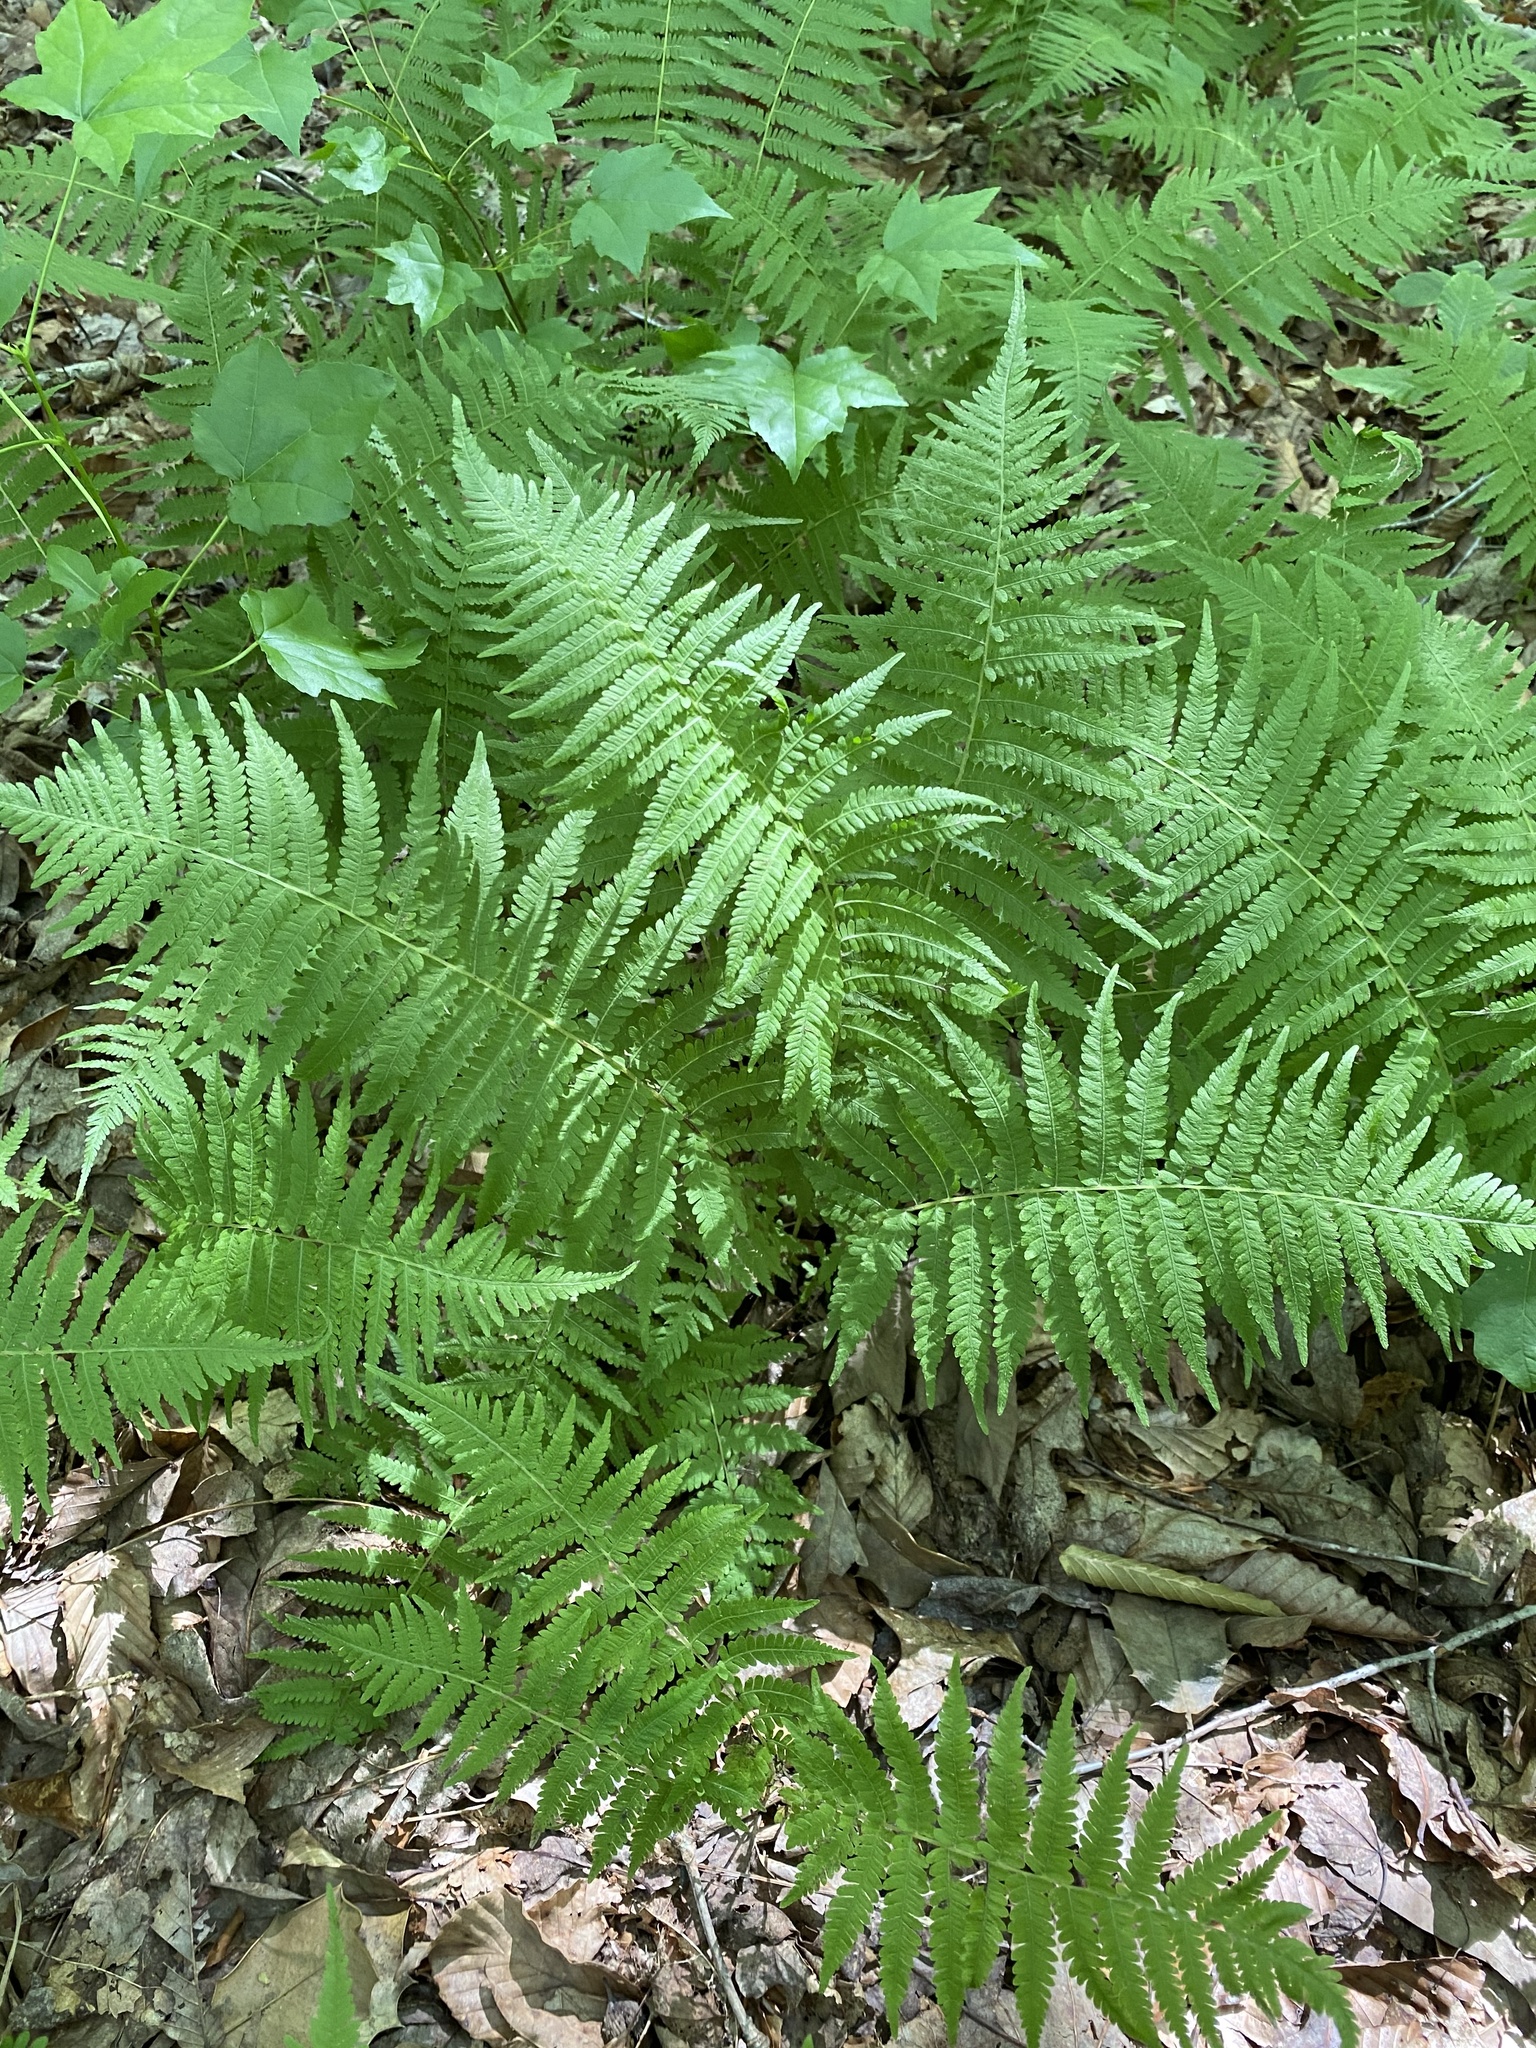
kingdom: Plantae
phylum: Tracheophyta
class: Polypodiopsida
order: Polypodiales
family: Thelypteridaceae
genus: Amauropelta
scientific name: Amauropelta noveboracensis
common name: New york fern
